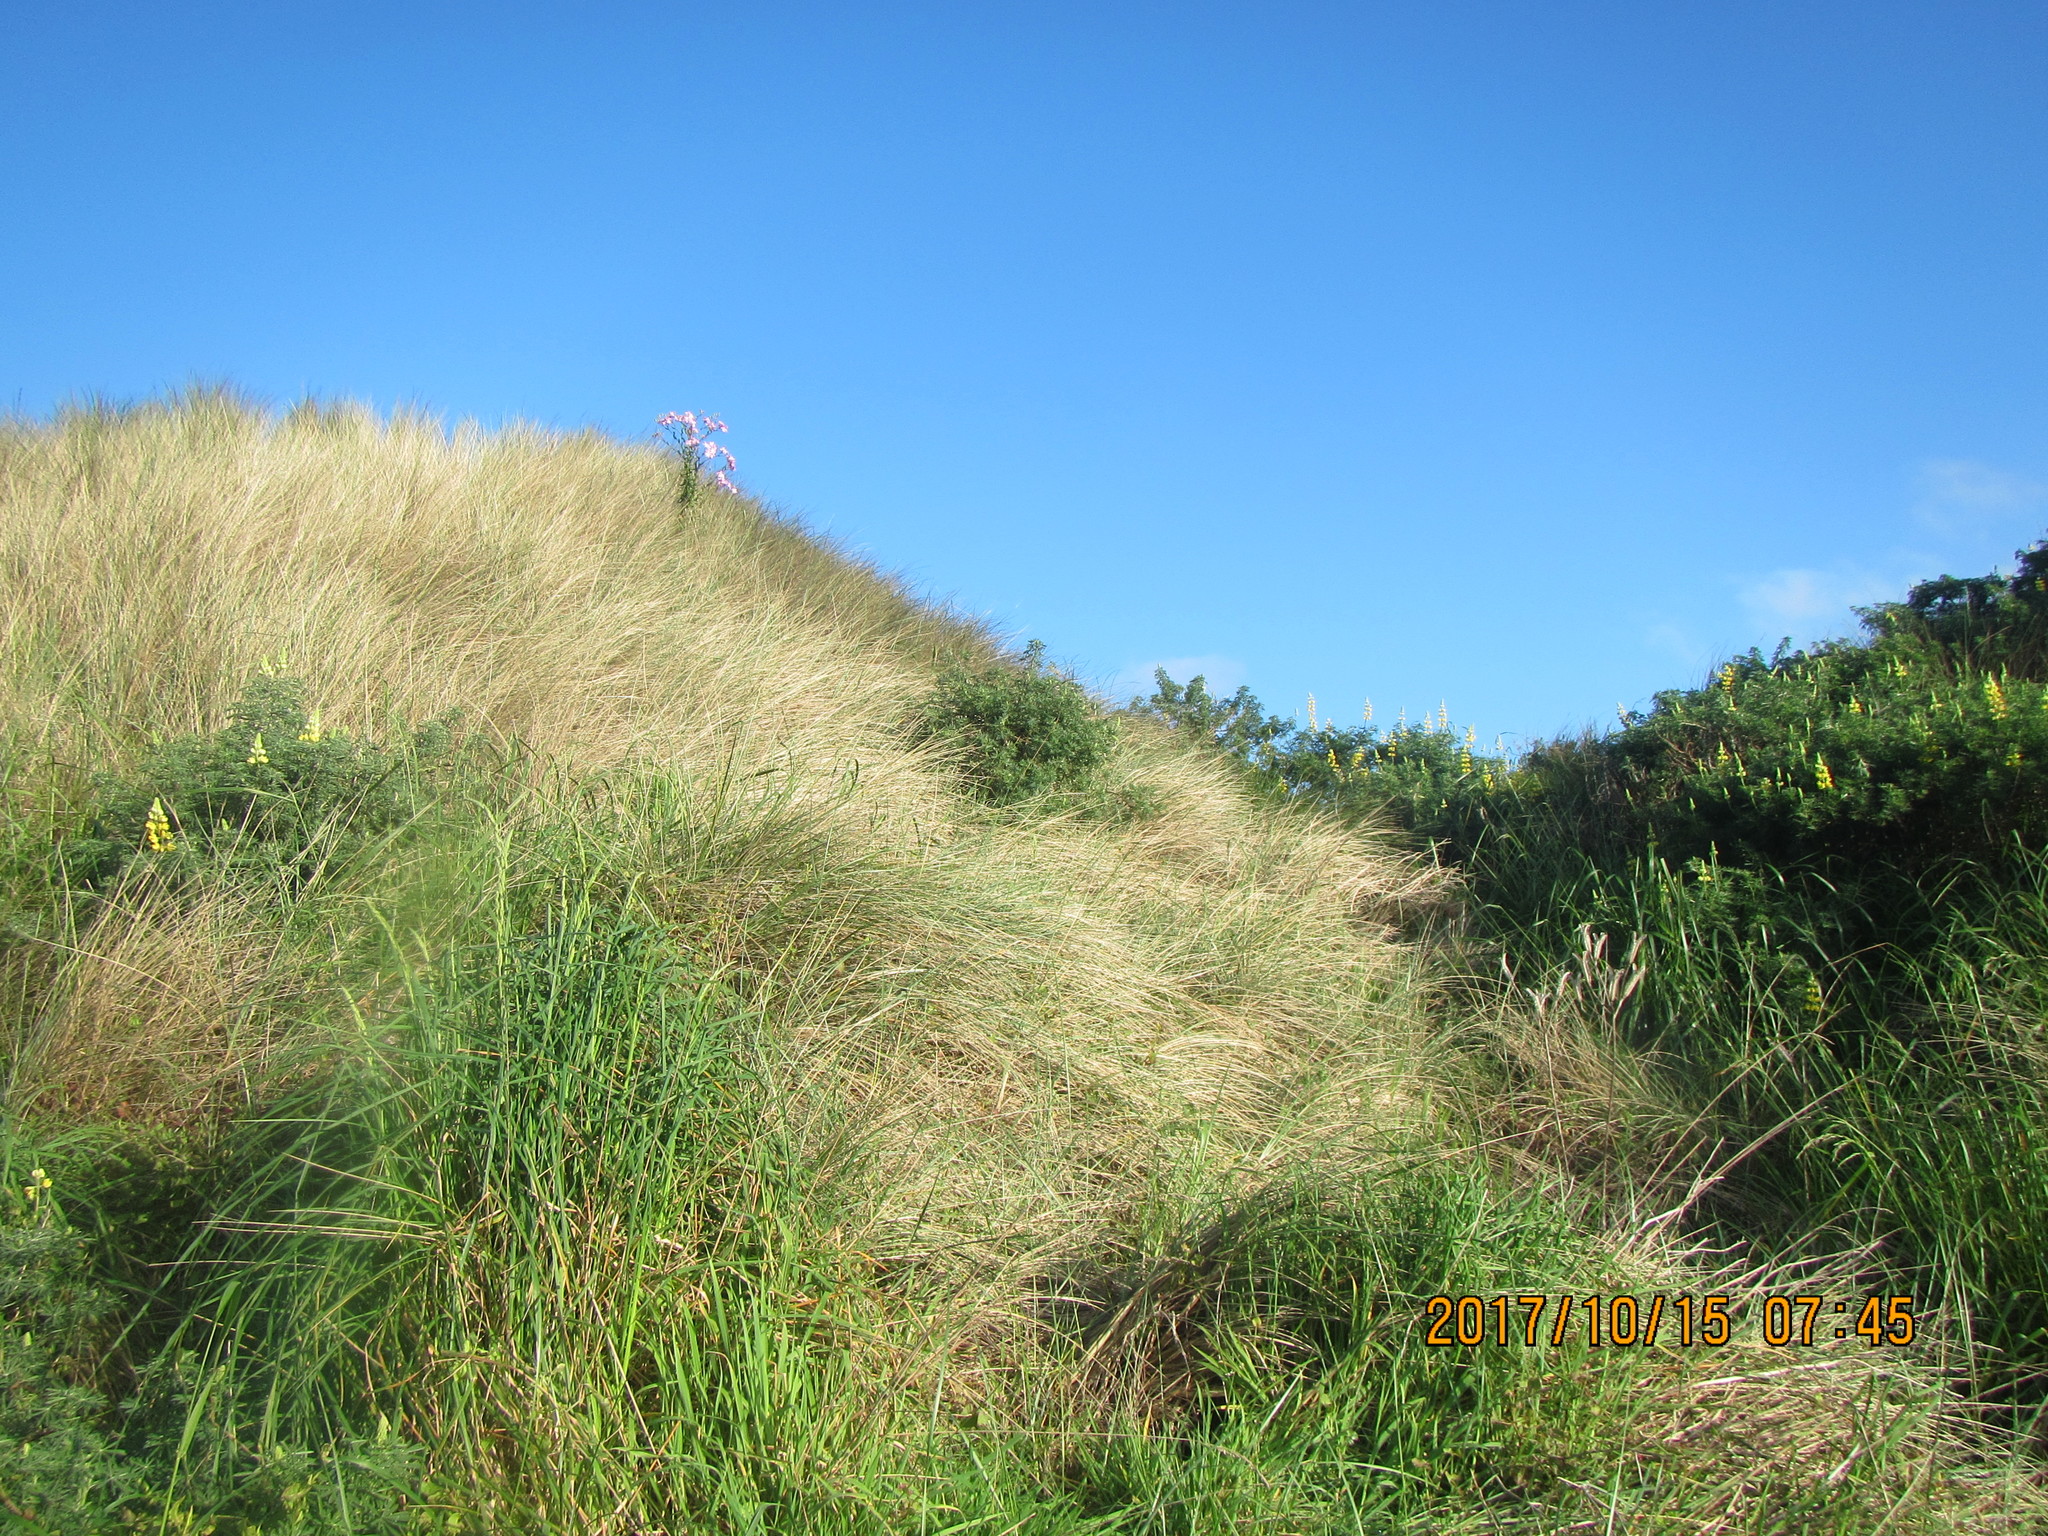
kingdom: Plantae
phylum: Tracheophyta
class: Magnoliopsida
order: Asterales
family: Asteraceae
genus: Senecio
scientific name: Senecio glastifolius
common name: Woad-leaved ragwort
